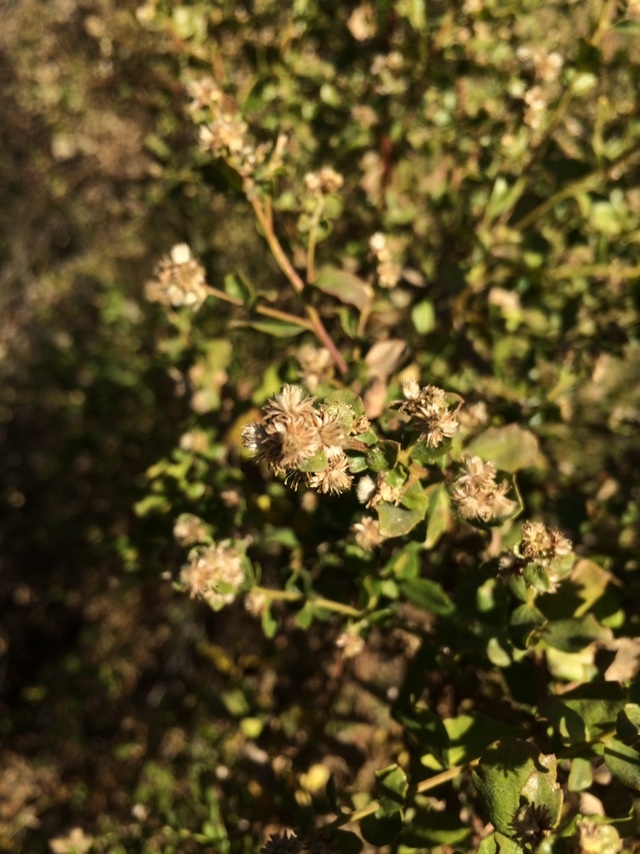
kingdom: Plantae
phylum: Tracheophyta
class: Magnoliopsida
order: Asterales
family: Asteraceae
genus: Baccharis
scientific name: Baccharis pilularis
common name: Coyotebrush
